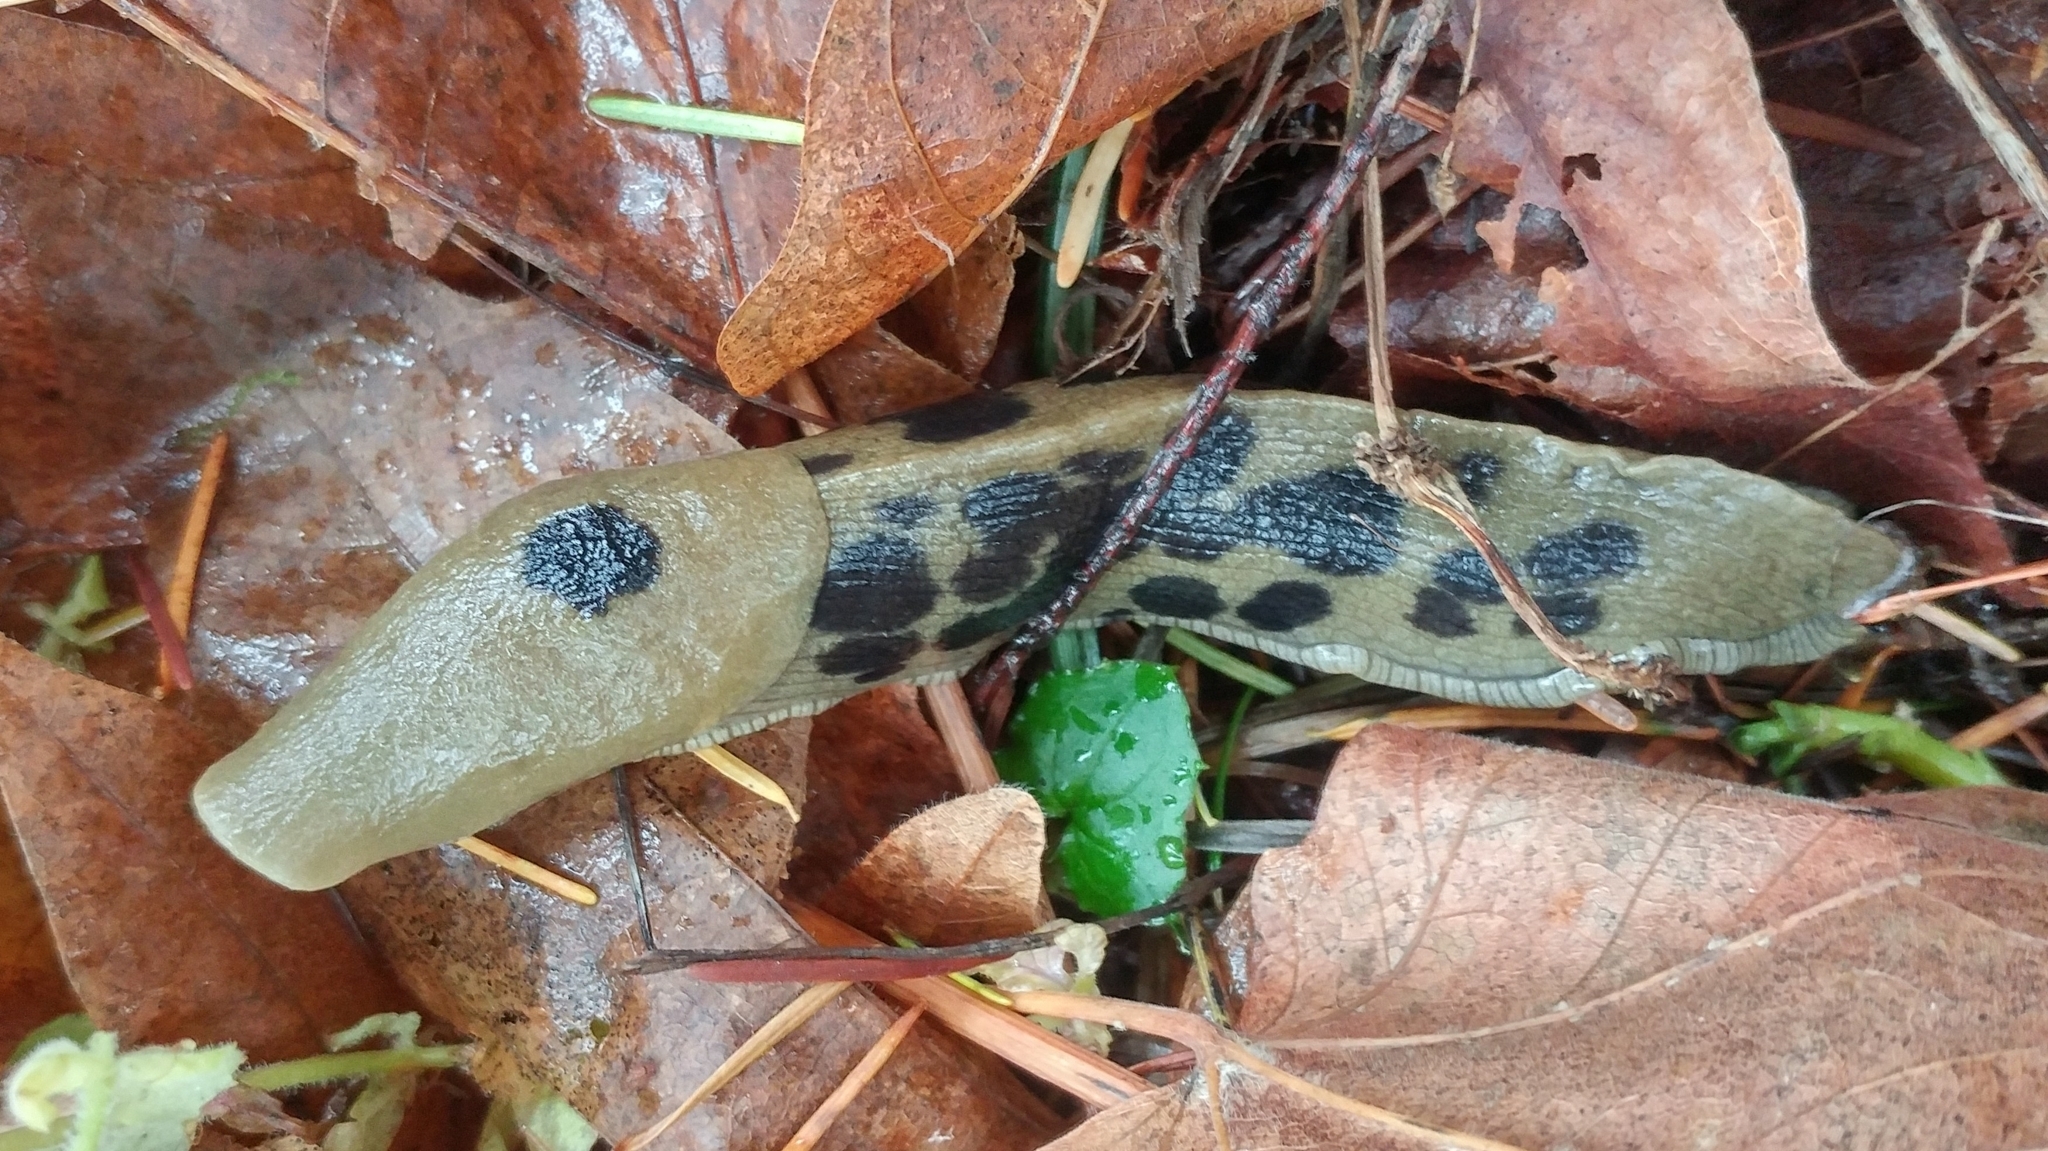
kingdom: Animalia
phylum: Mollusca
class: Gastropoda
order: Stylommatophora
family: Ariolimacidae
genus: Ariolimax
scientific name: Ariolimax columbianus
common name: Pacific banana slug
